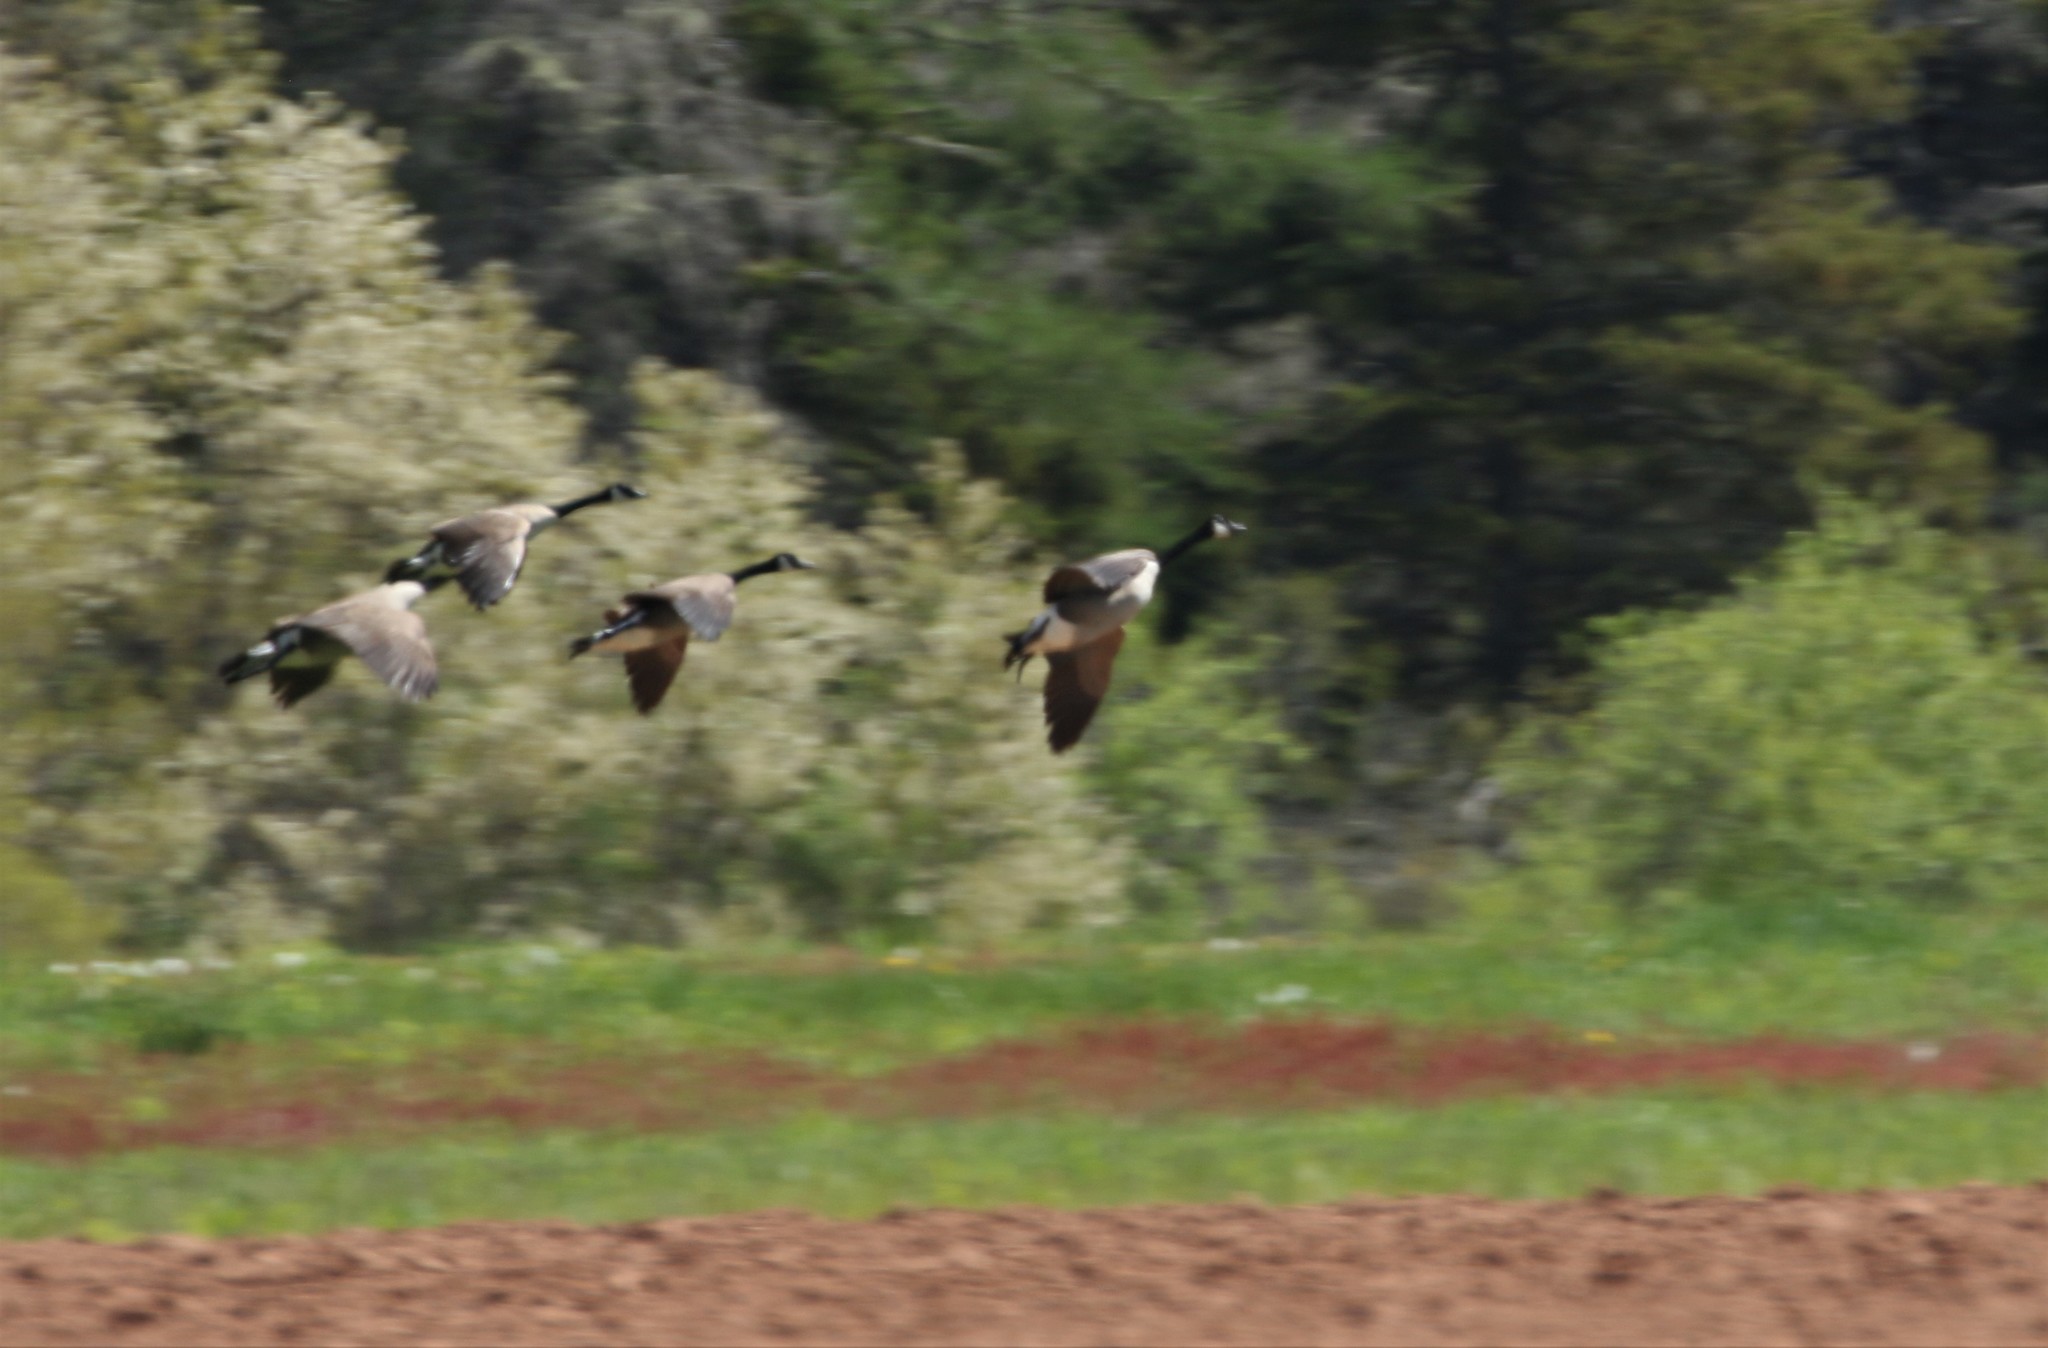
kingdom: Animalia
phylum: Chordata
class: Aves
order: Anseriformes
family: Anatidae
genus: Branta
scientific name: Branta canadensis
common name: Canada goose
